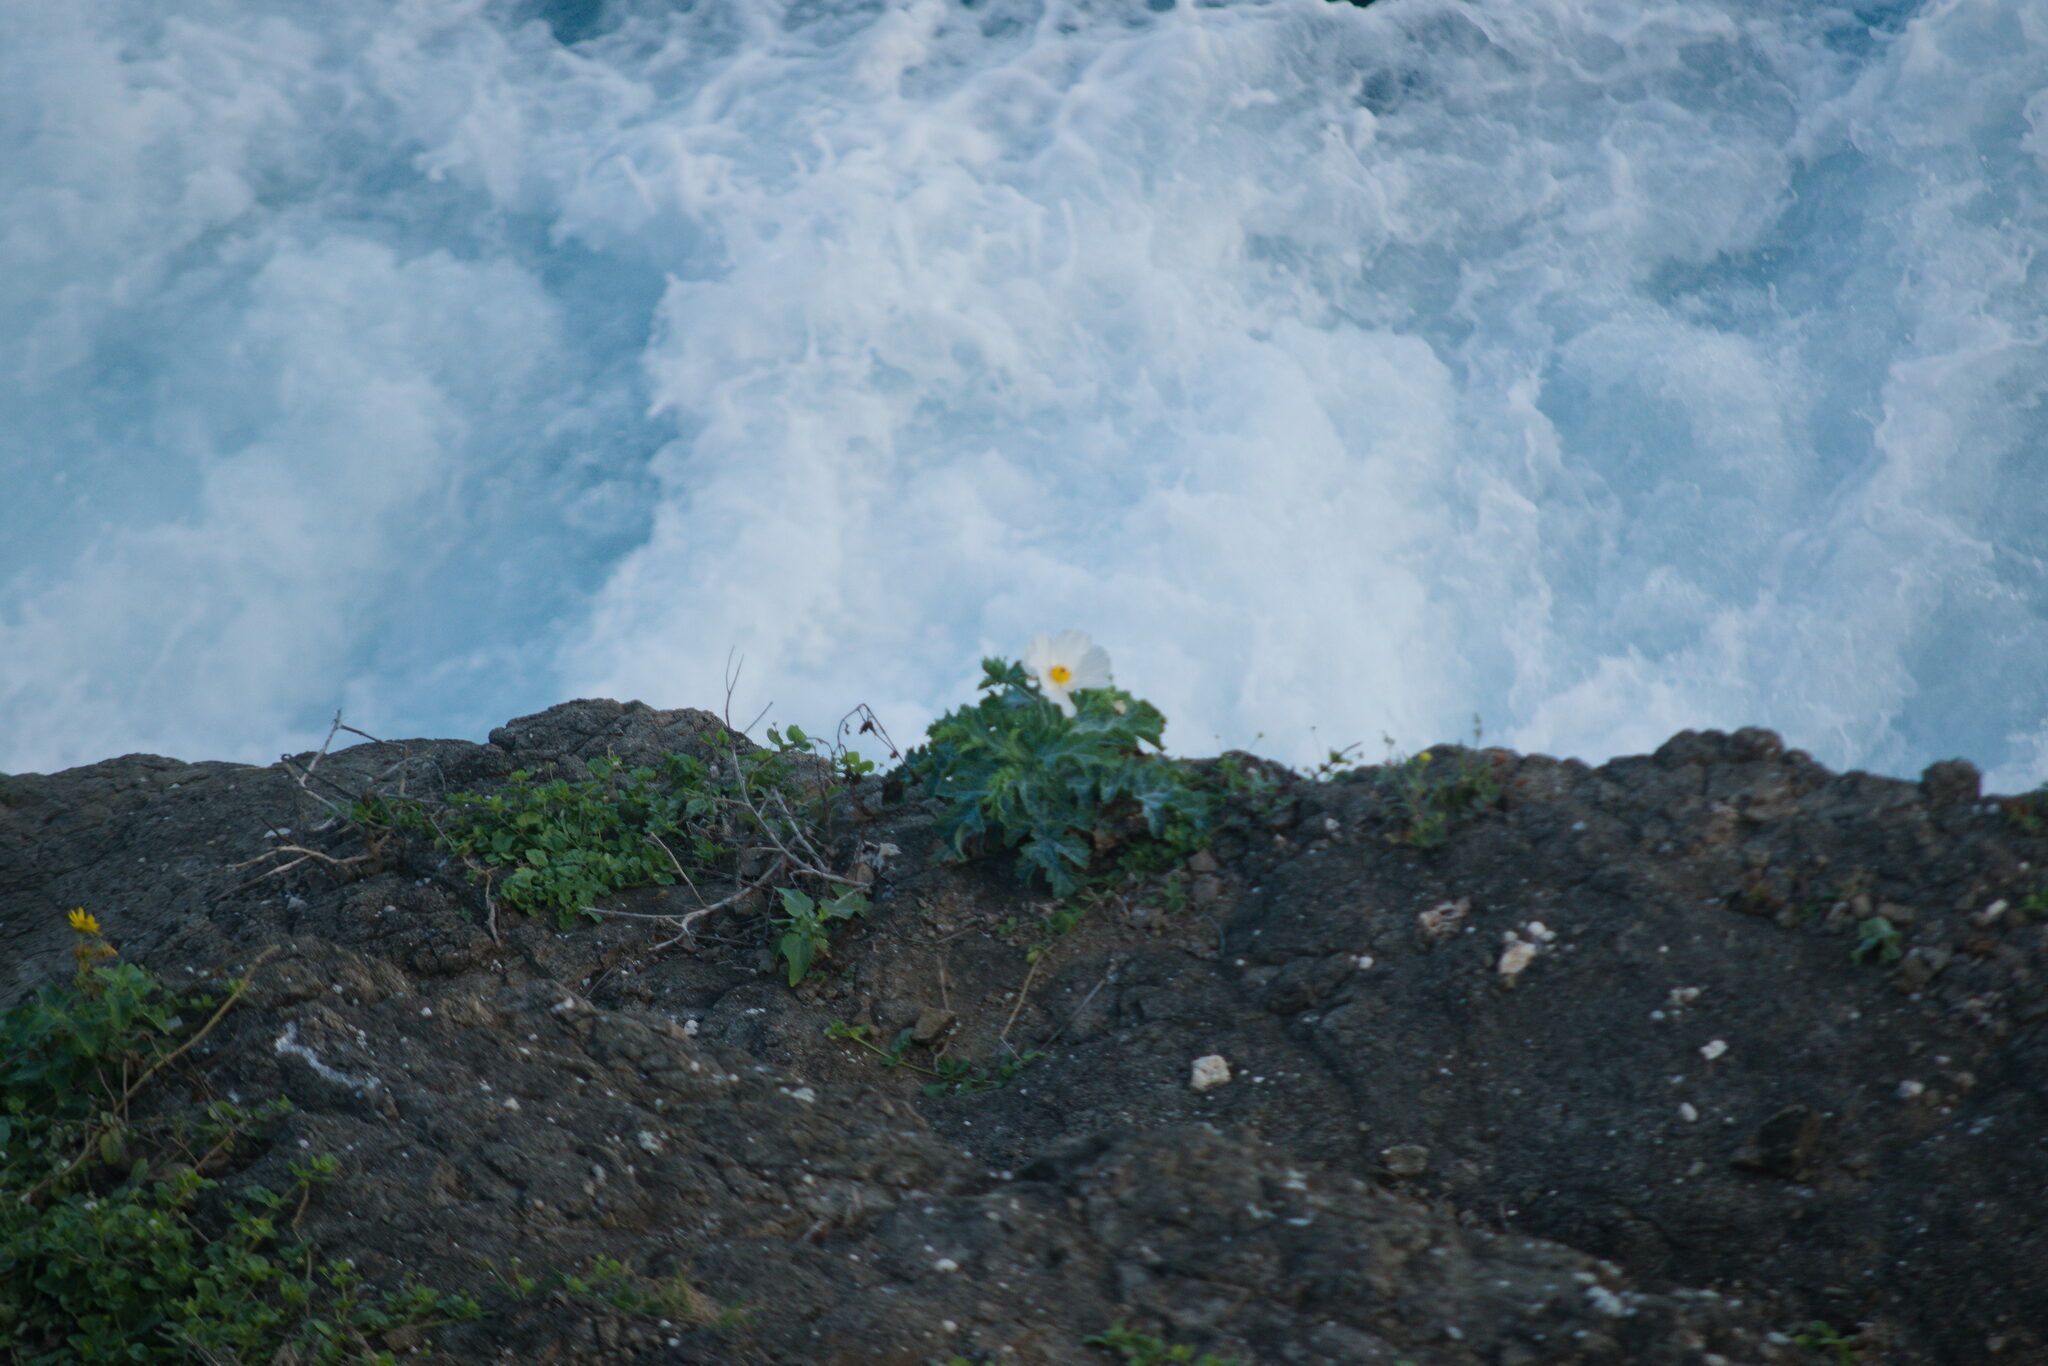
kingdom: Plantae
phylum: Tracheophyta
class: Magnoliopsida
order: Ranunculales
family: Papaveraceae
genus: Argemone
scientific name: Argemone glauca
